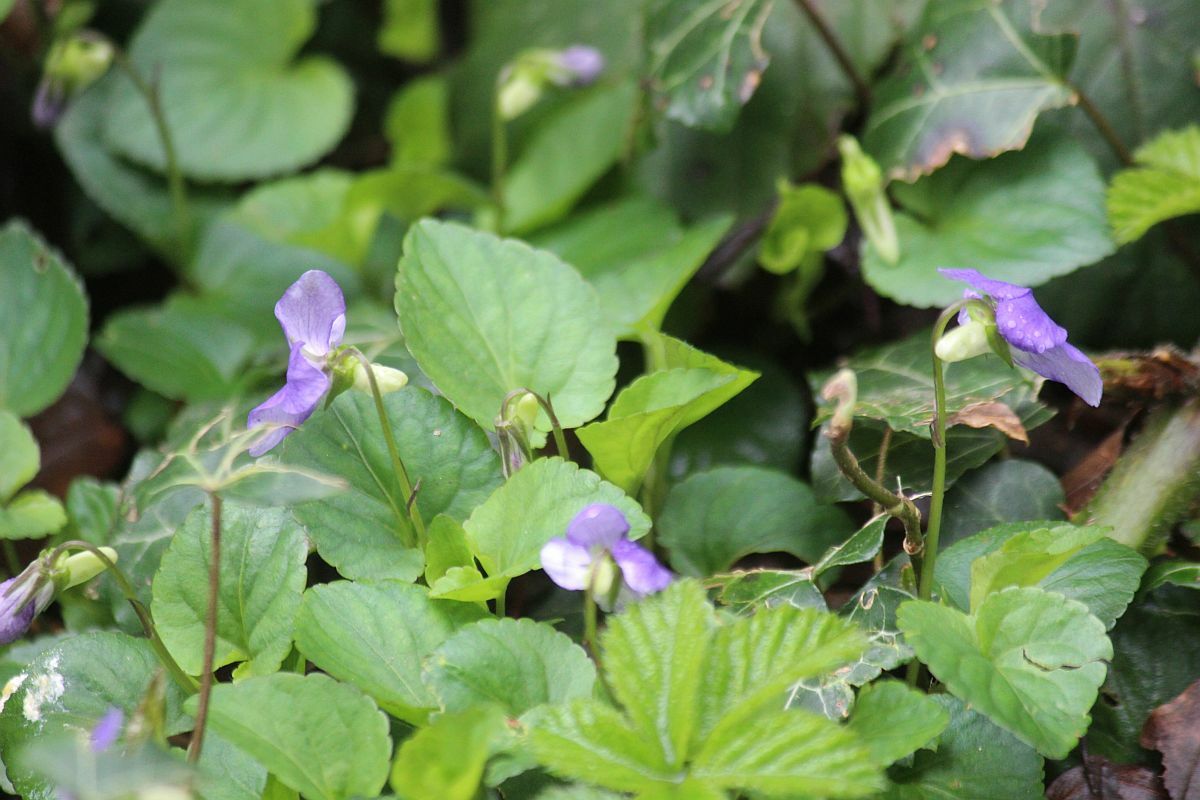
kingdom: Plantae
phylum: Tracheophyta
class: Magnoliopsida
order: Malpighiales
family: Violaceae
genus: Viola
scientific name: Viola riviniana
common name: Common dog-violet
